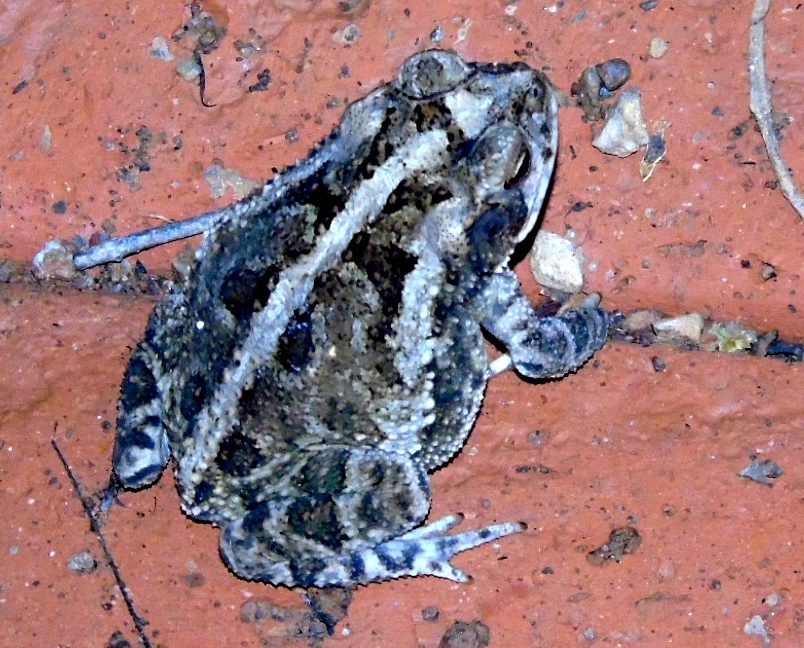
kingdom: Animalia
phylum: Chordata
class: Amphibia
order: Anura
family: Bufonidae
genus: Incilius
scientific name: Incilius mazatlanensis
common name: Sinaloa toad
